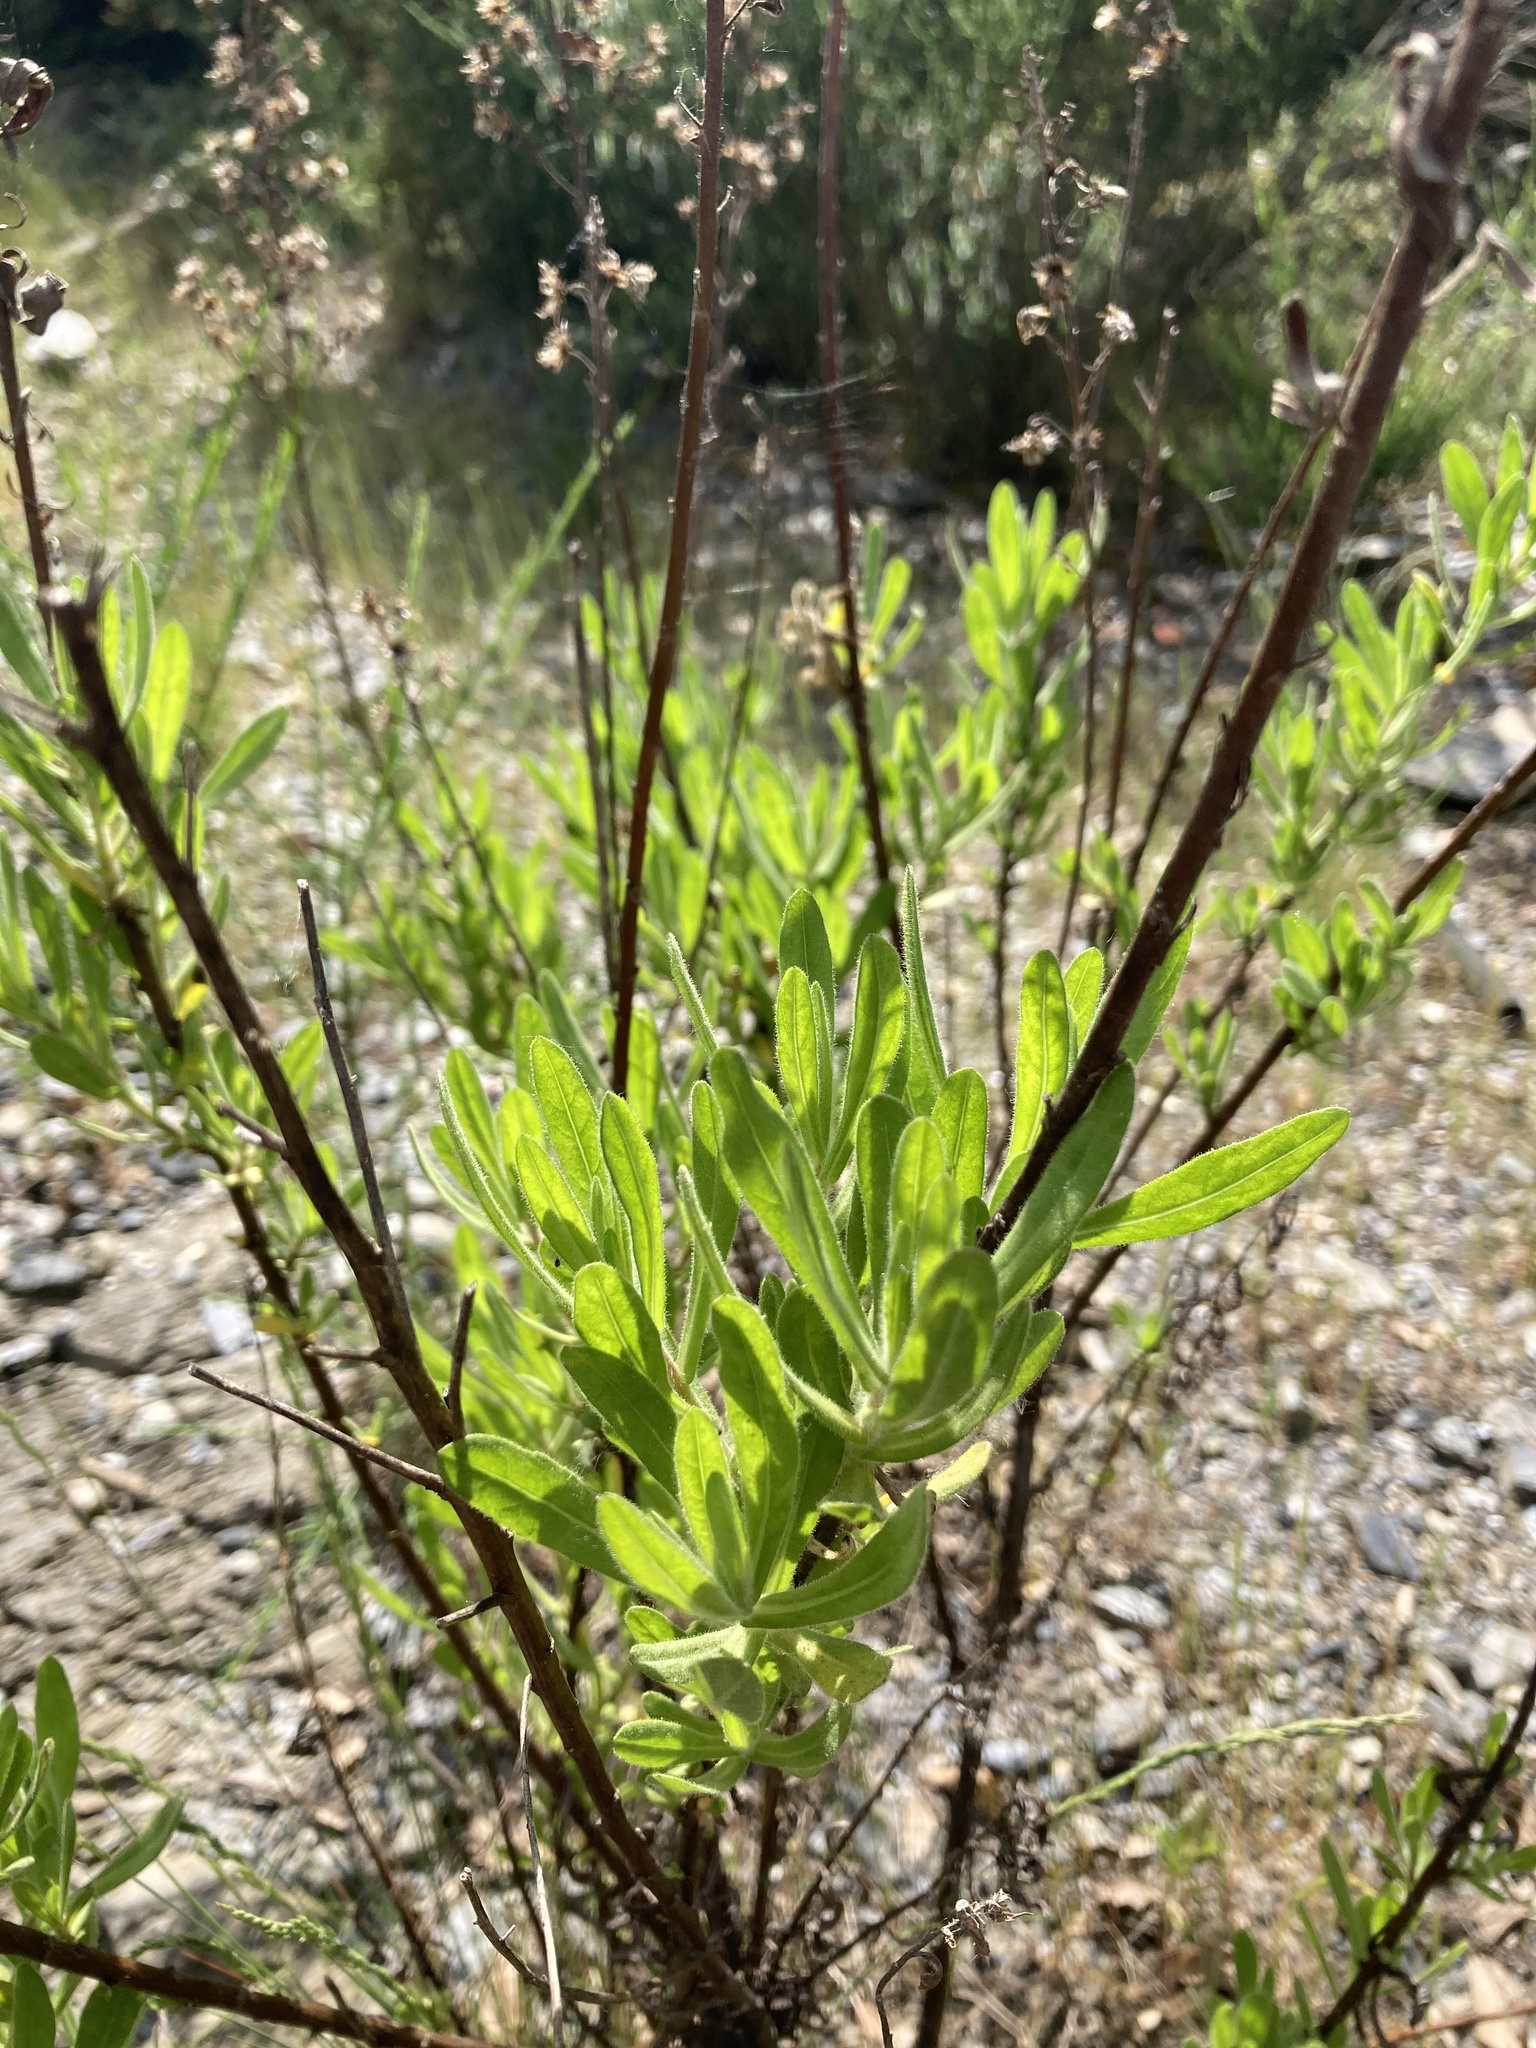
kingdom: Plantae
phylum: Tracheophyta
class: Magnoliopsida
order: Asterales
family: Asteraceae
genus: Dittrichia
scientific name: Dittrichia viscosa
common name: Woody fleabane
